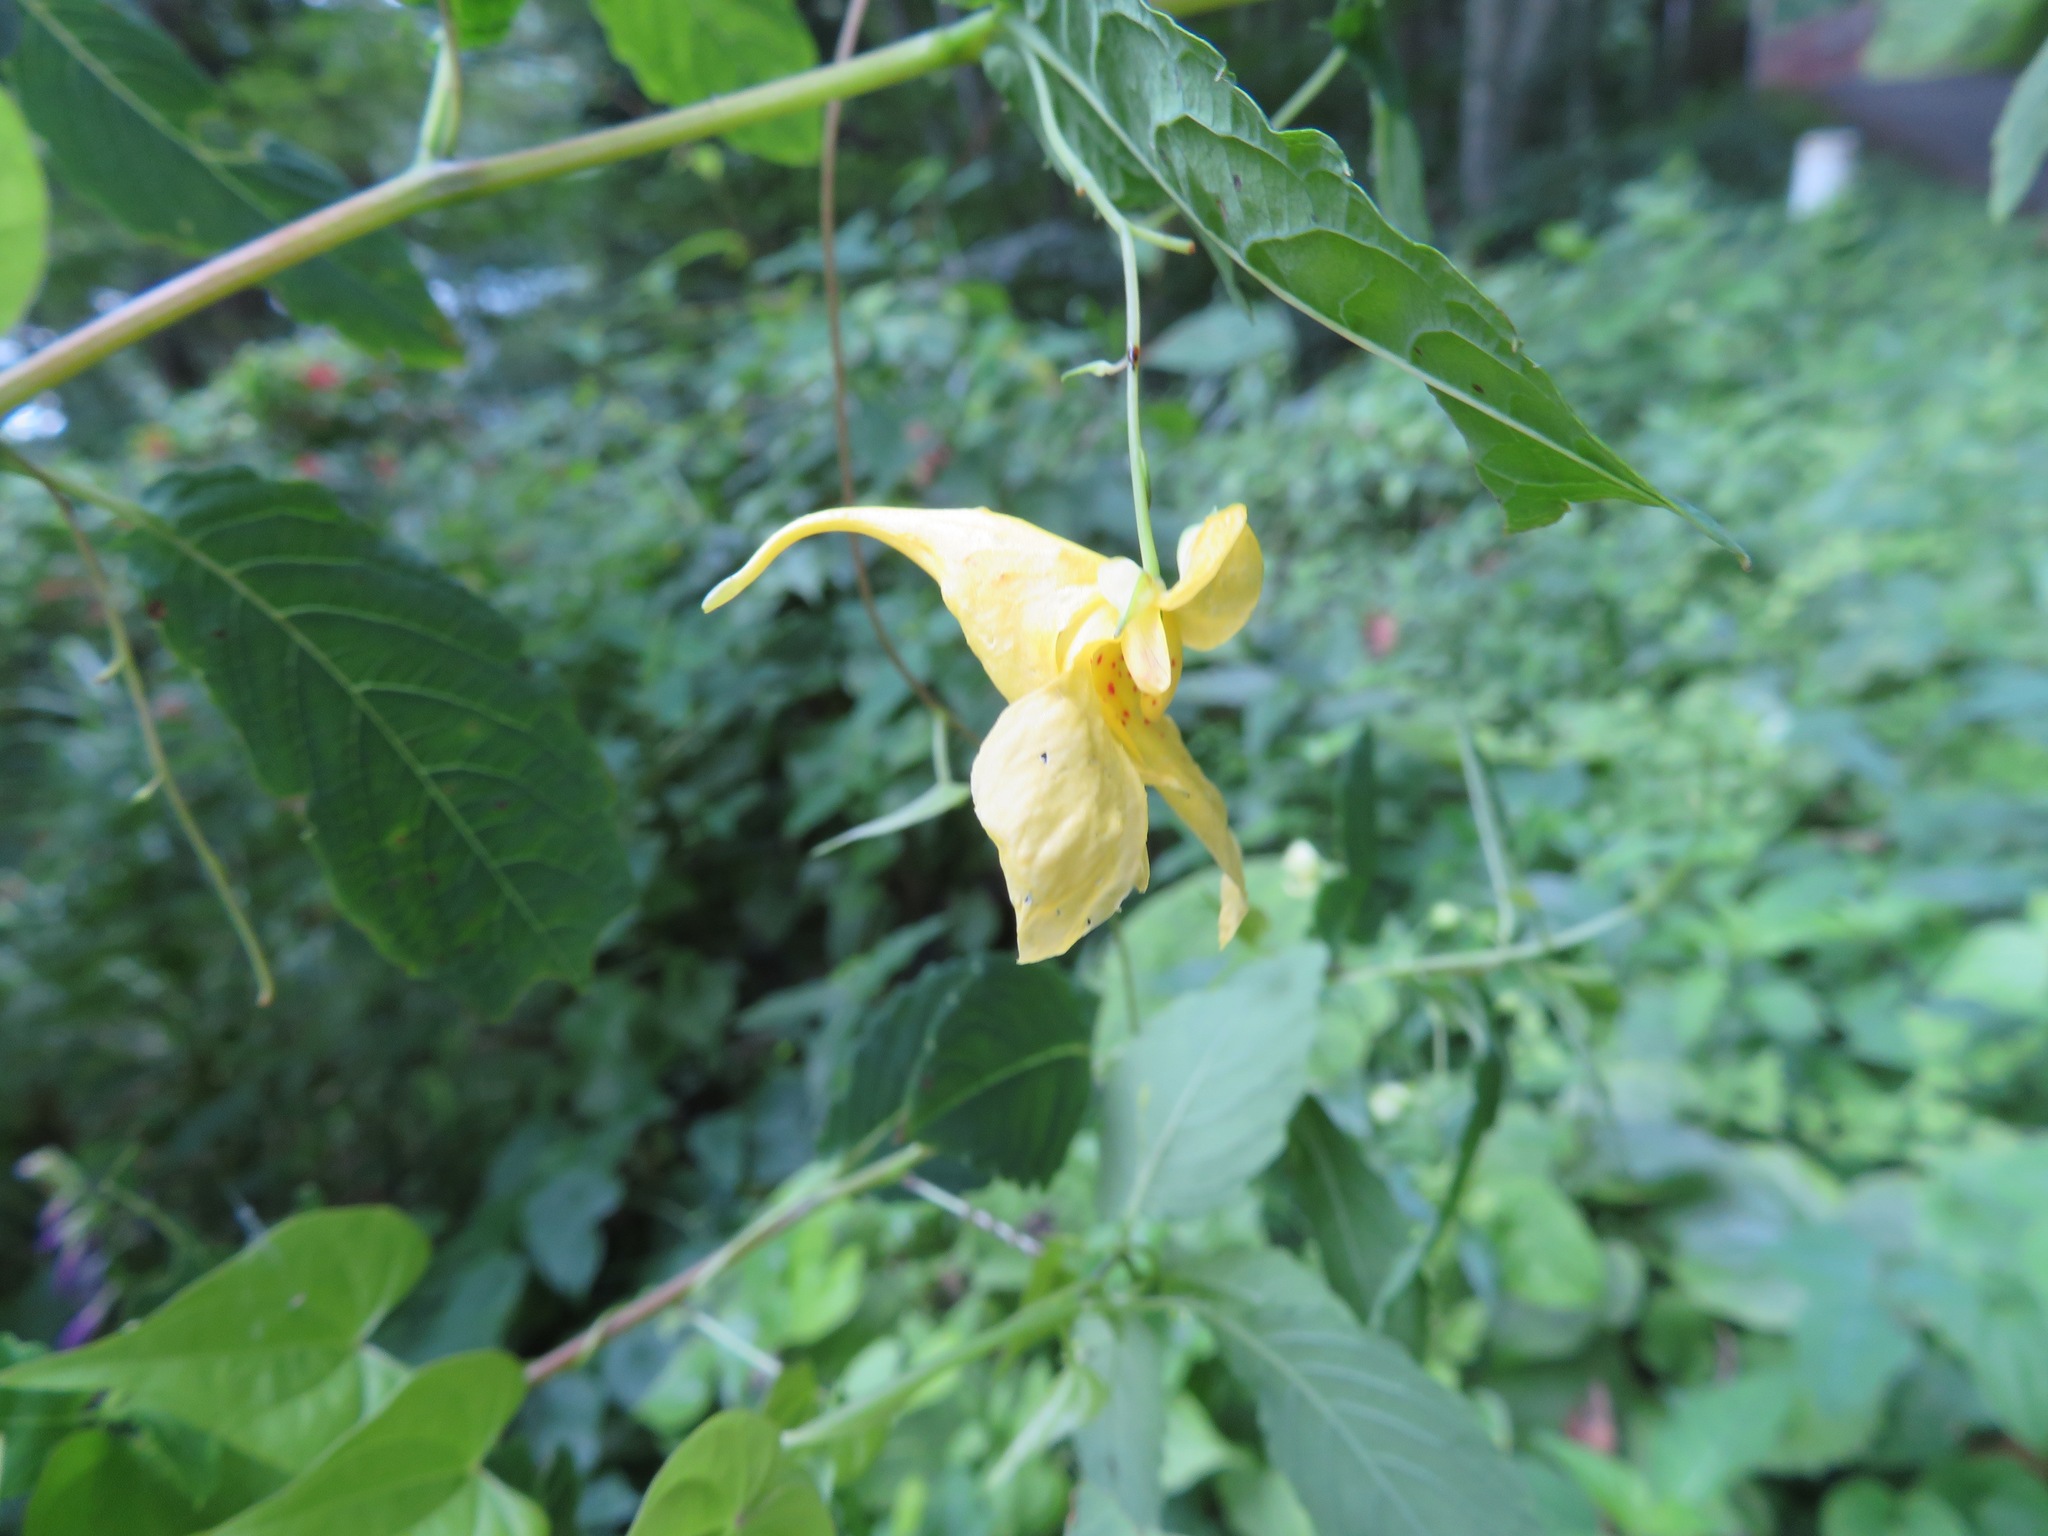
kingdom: Plantae
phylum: Tracheophyta
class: Magnoliopsida
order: Ericales
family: Balsaminaceae
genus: Impatiens
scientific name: Impatiens noli-tangere
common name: Touch-me-not balsam
